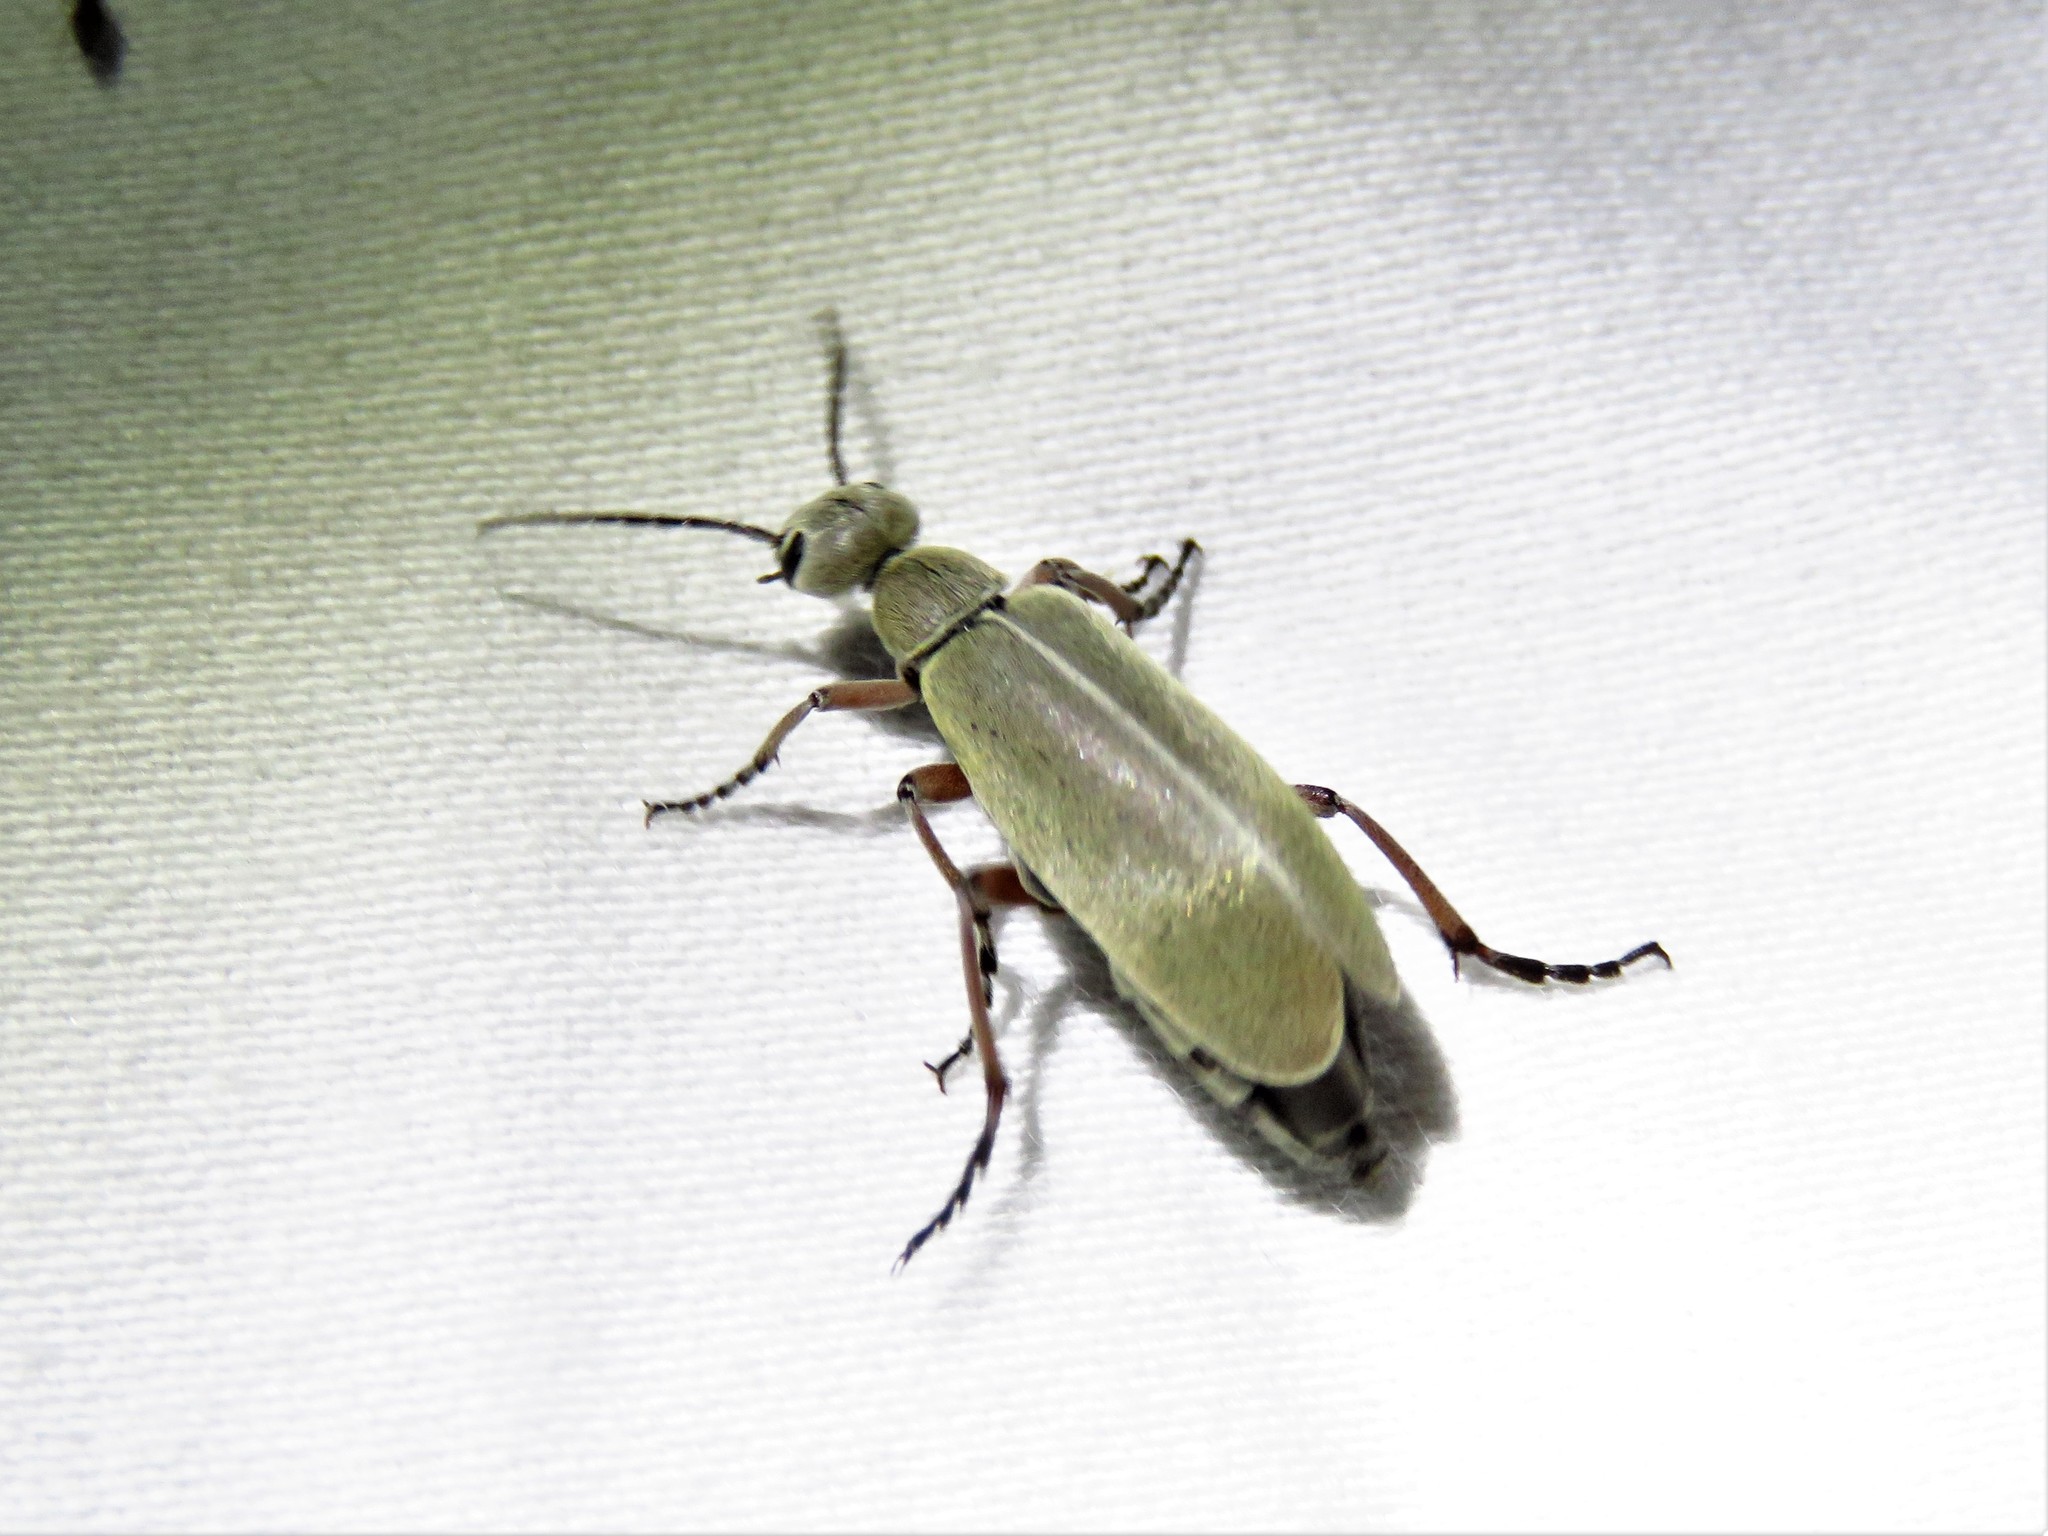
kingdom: Animalia
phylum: Arthropoda
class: Insecta
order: Coleoptera
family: Meloidae
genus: Epicauta
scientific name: Epicauta nigritarsis
